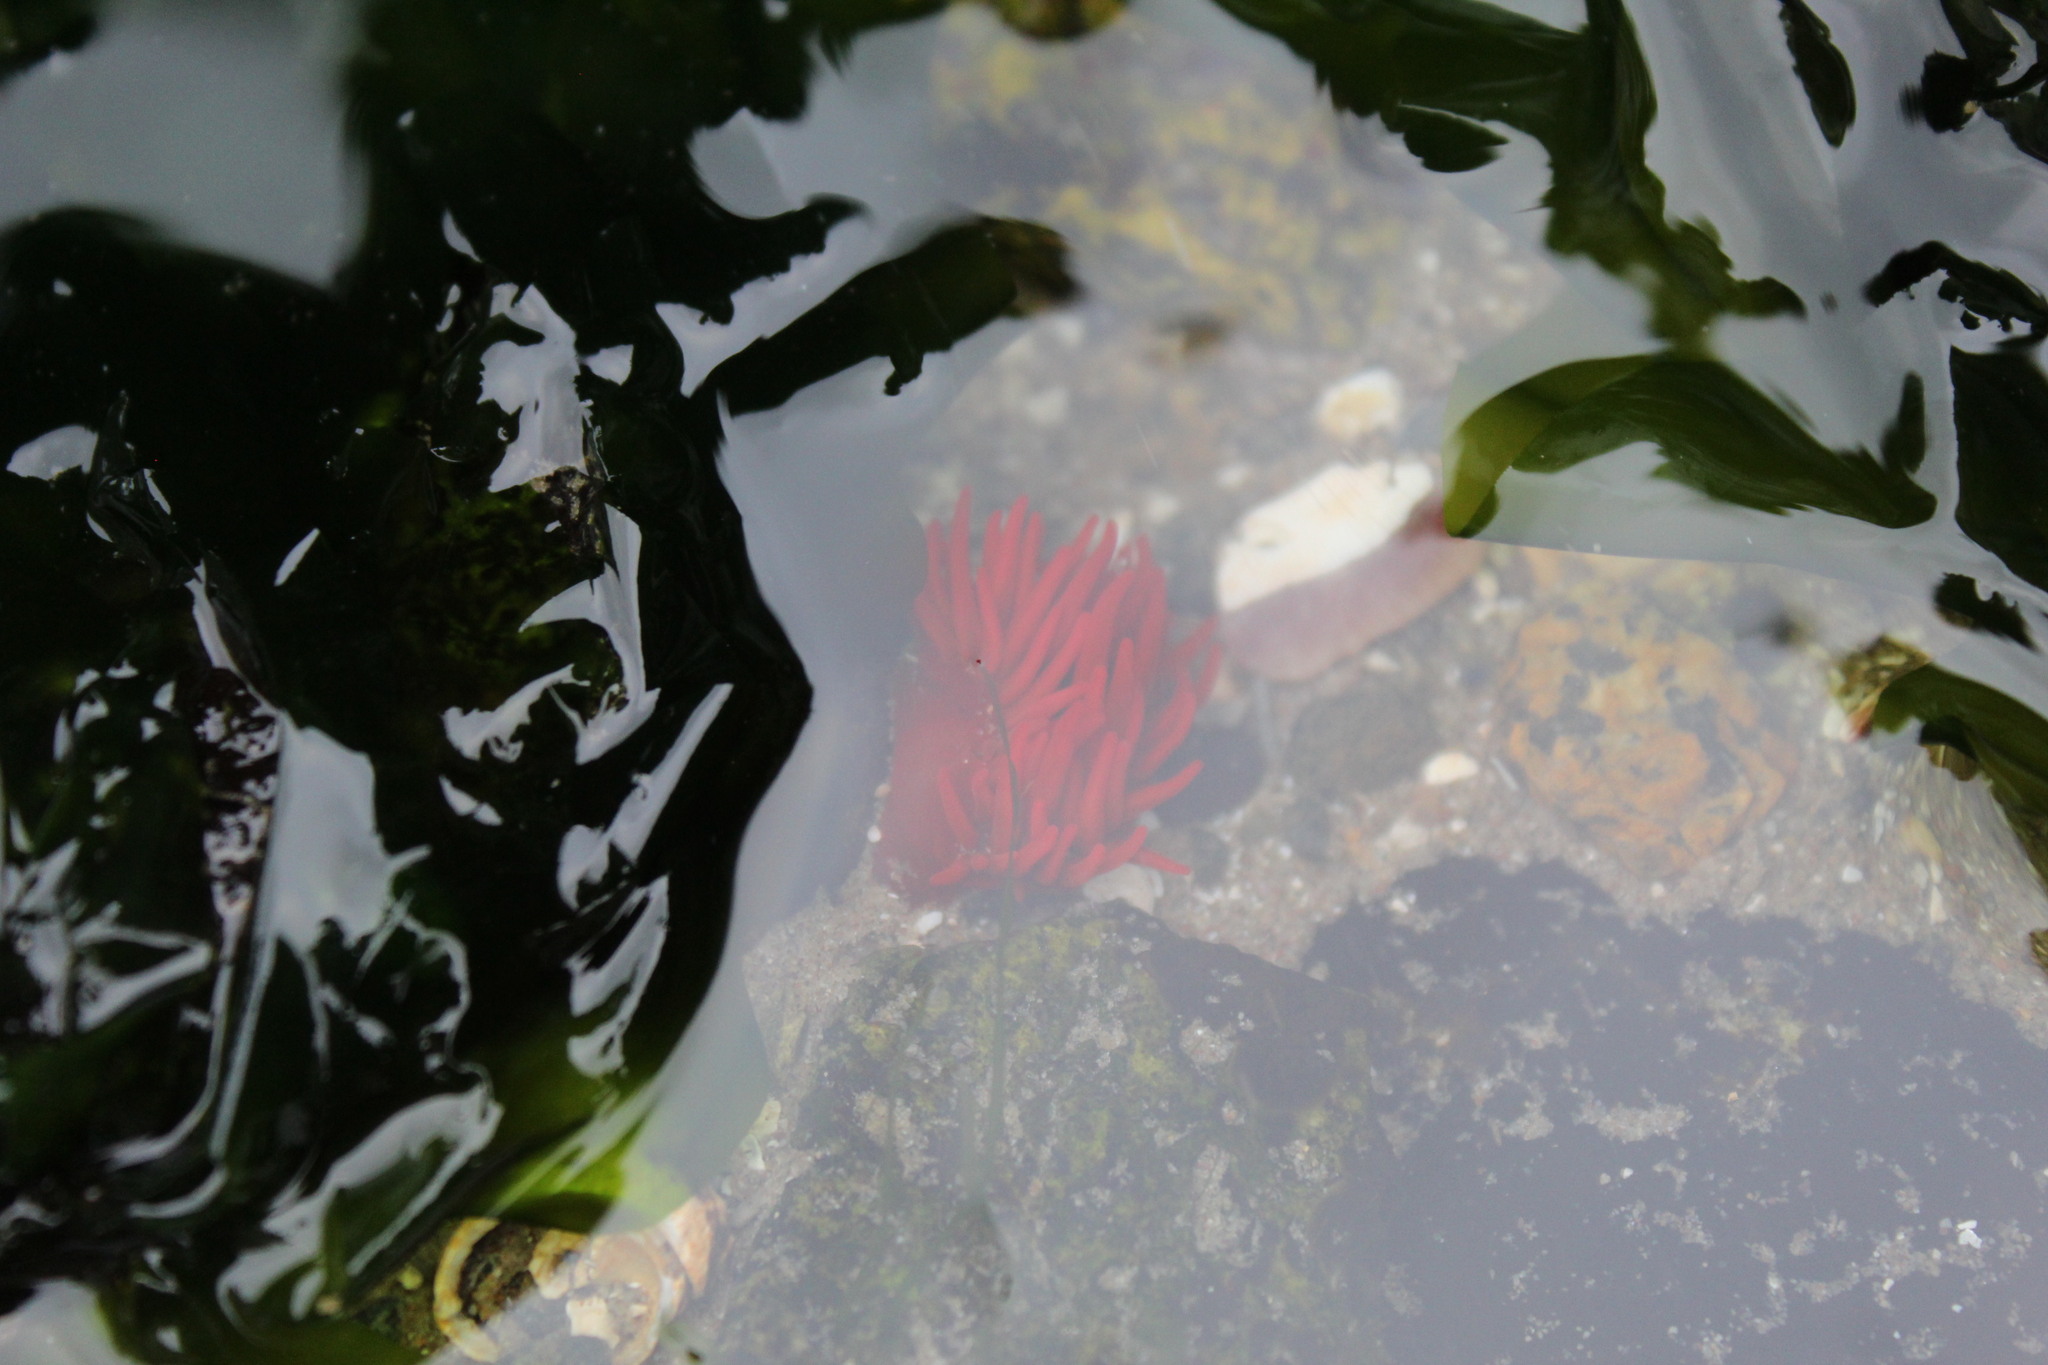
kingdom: Animalia
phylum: Cnidaria
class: Anthozoa
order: Actiniaria
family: Actiniidae
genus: Anemonia
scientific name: Anemonia alicemartinae
